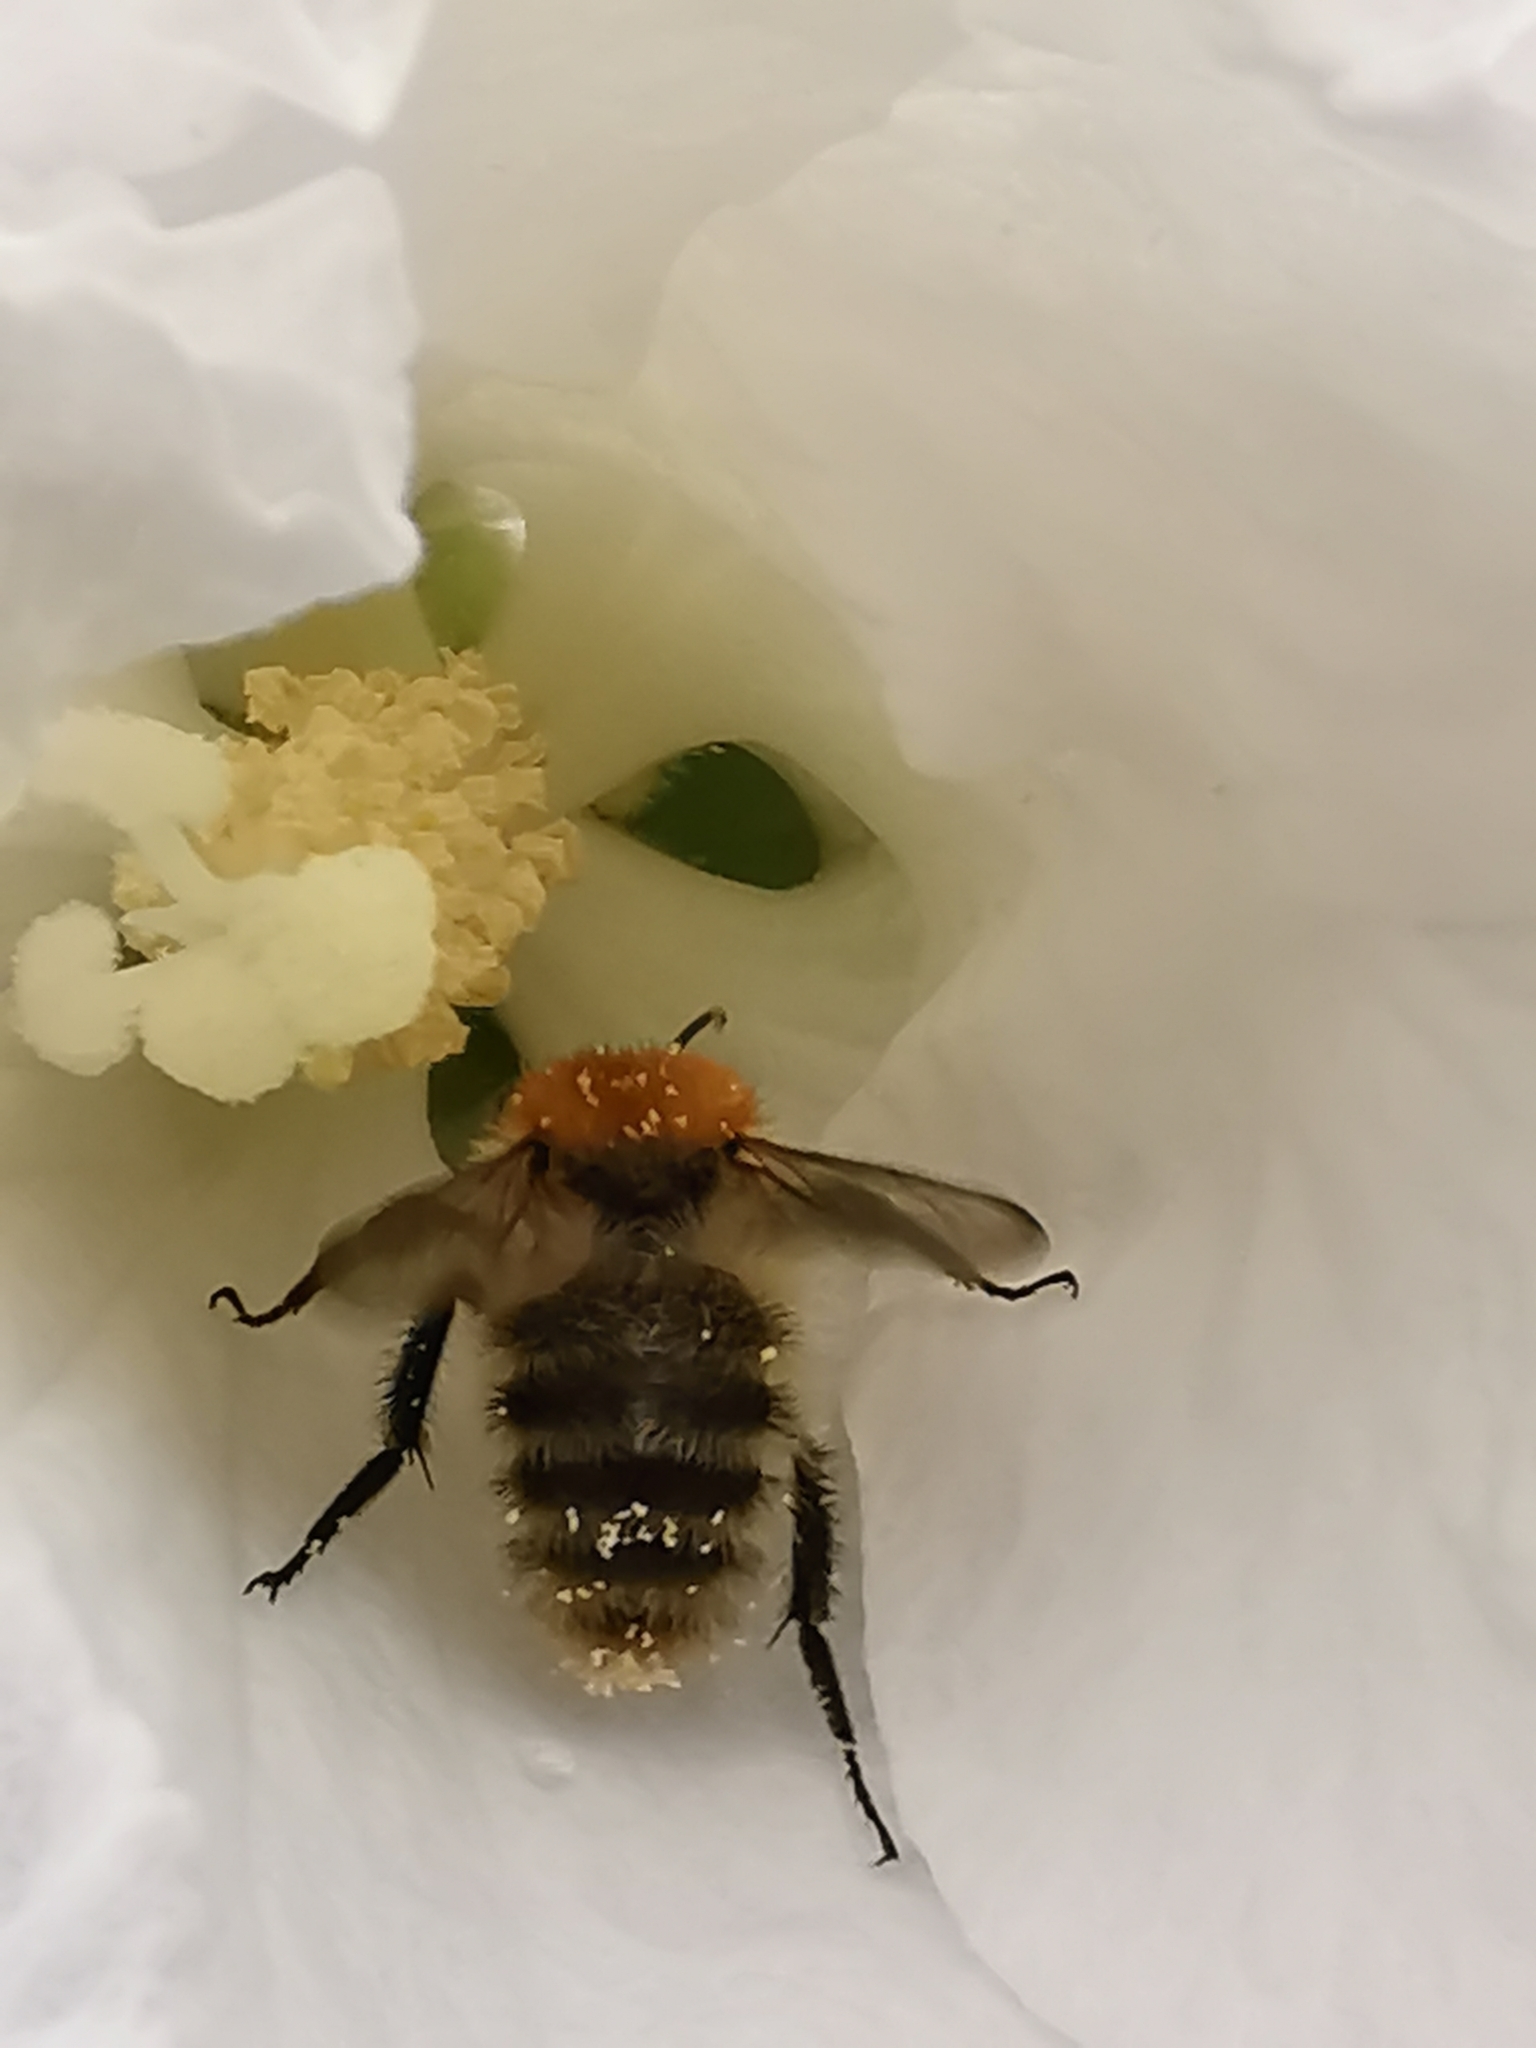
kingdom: Animalia
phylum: Arthropoda
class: Insecta
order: Hymenoptera
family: Apidae
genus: Bombus
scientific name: Bombus pascuorum
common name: Common carder bee
